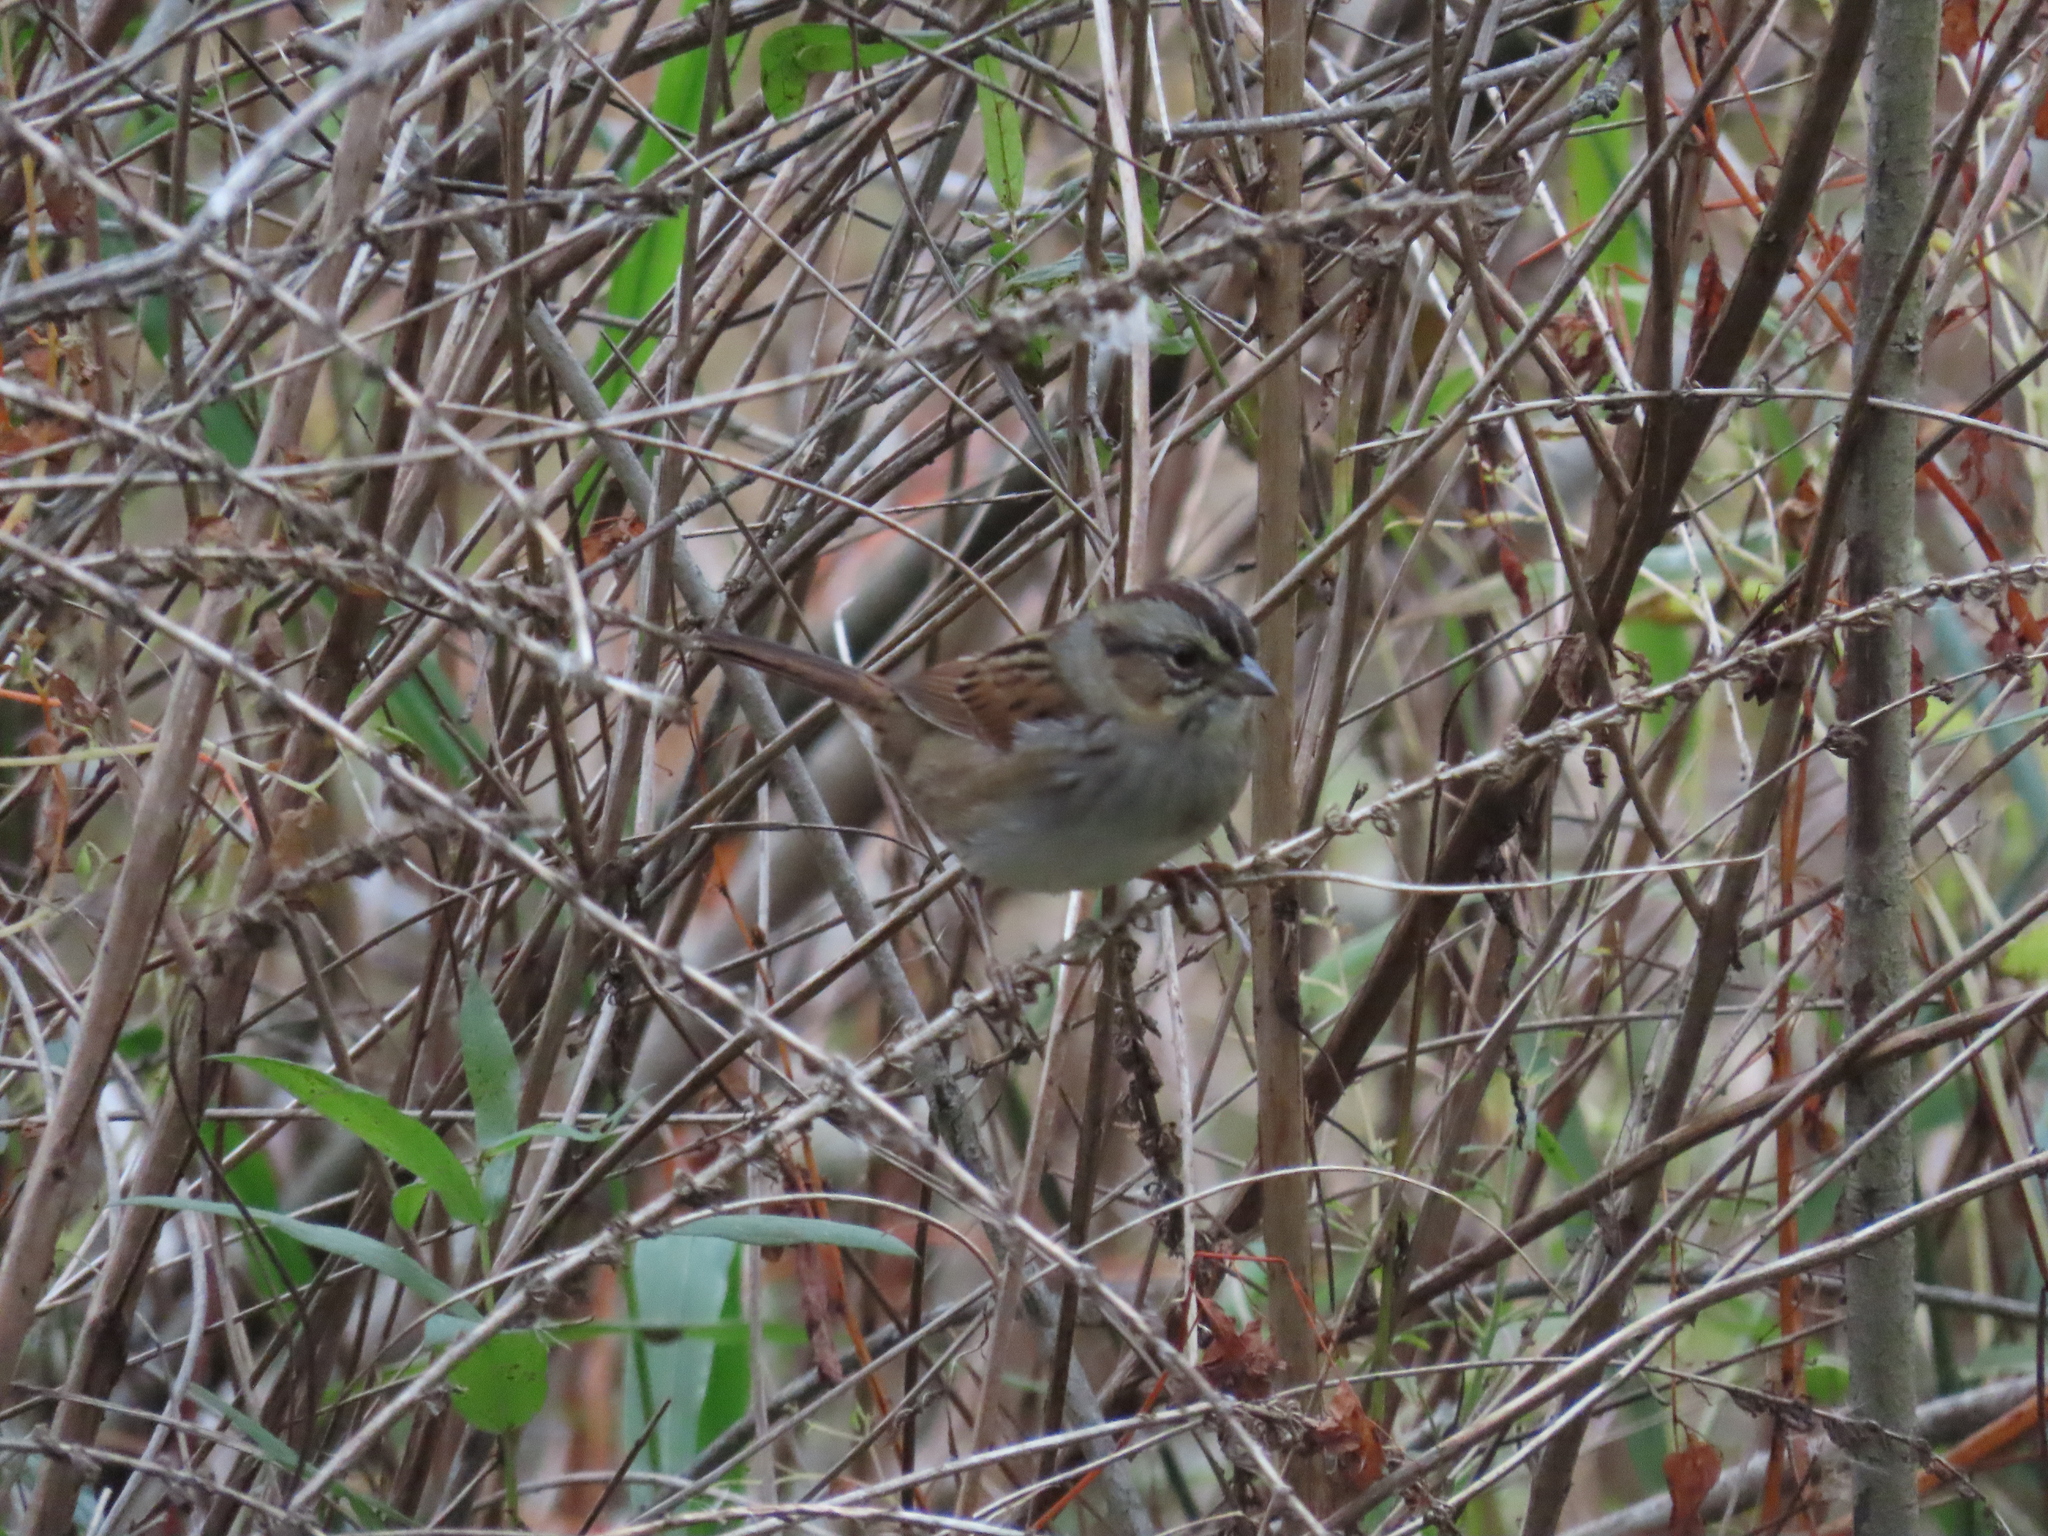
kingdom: Animalia
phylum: Chordata
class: Aves
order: Passeriformes
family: Passerellidae
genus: Melospiza
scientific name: Melospiza georgiana
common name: Swamp sparrow
